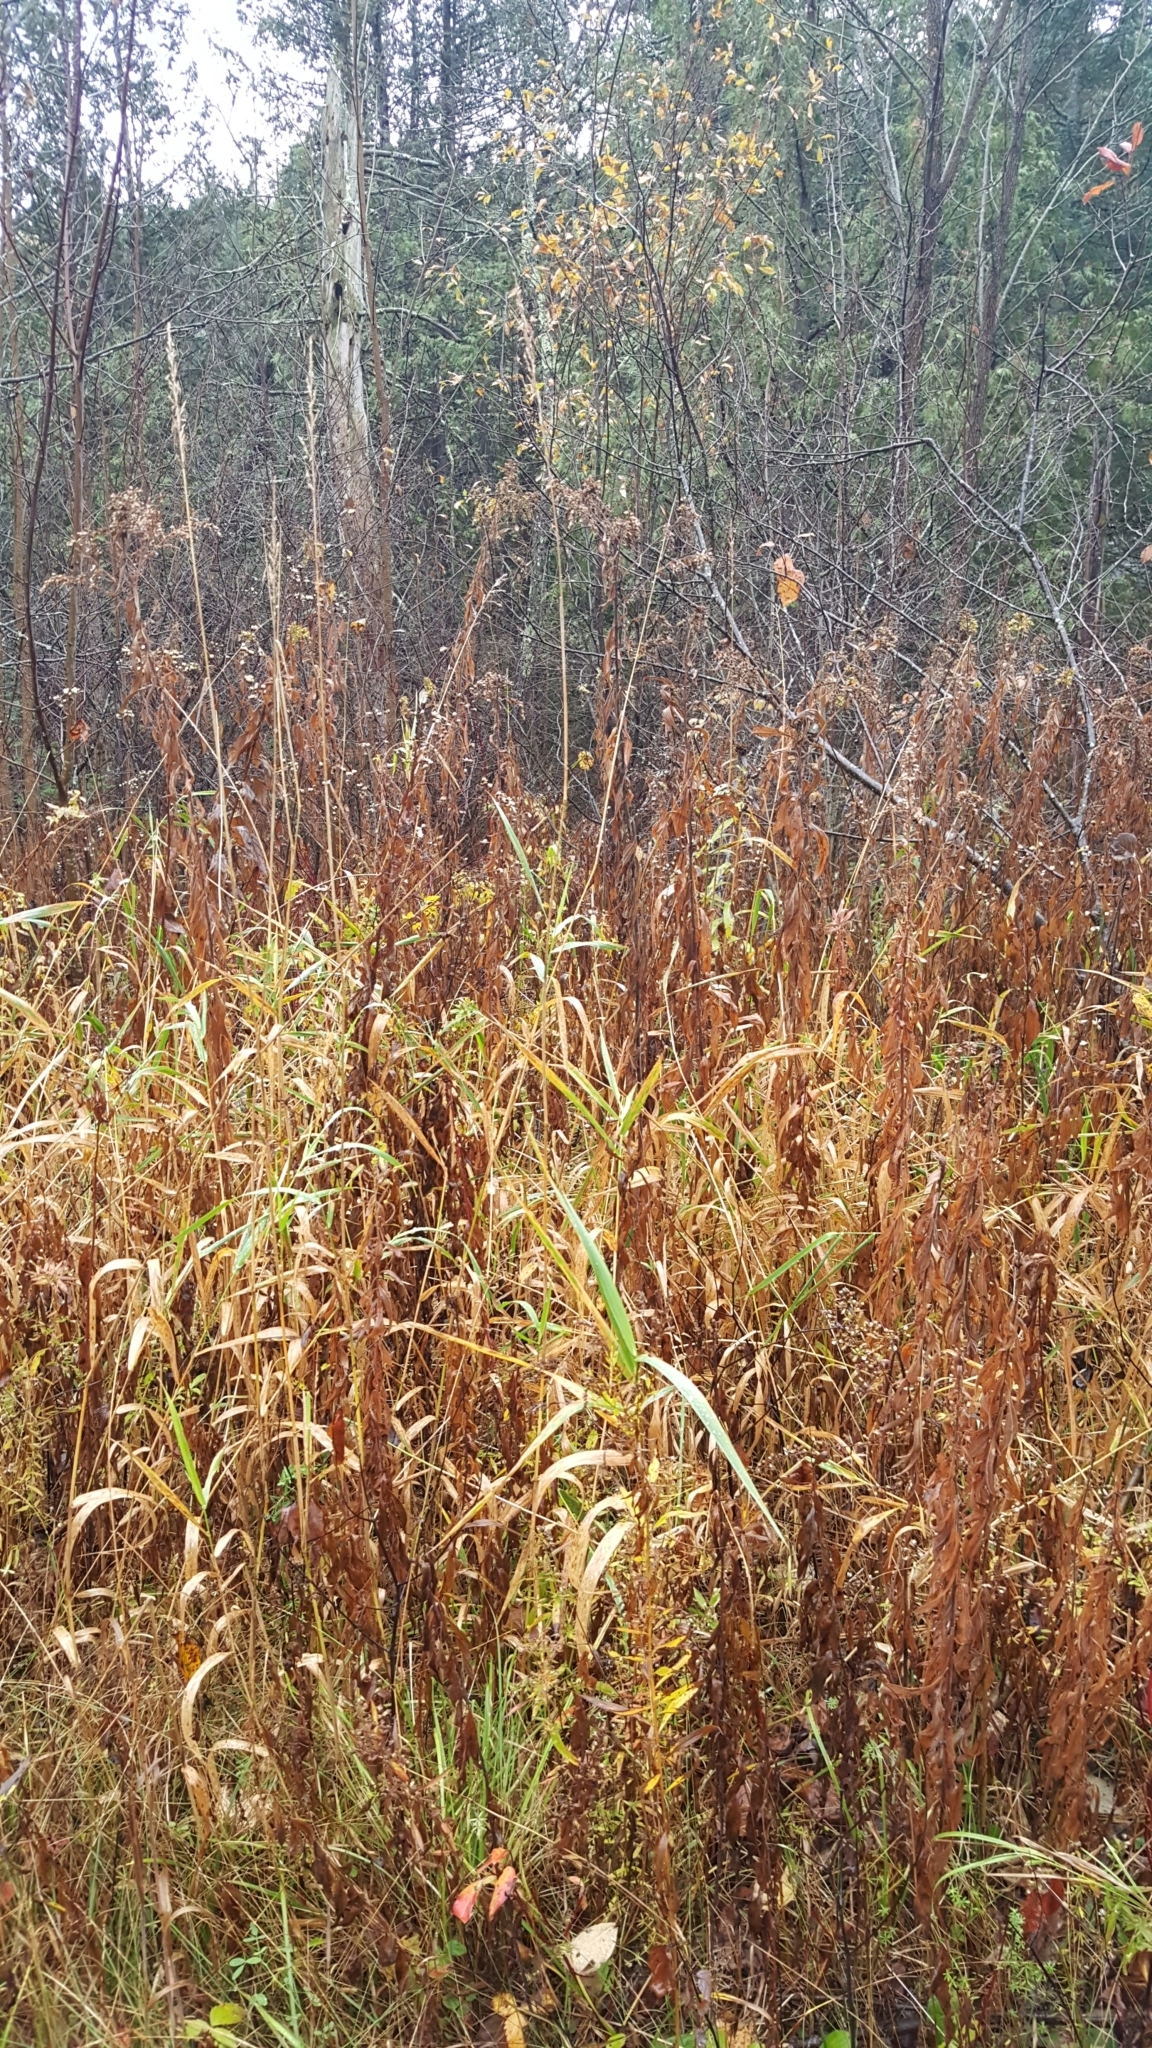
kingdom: Plantae
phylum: Tracheophyta
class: Liliopsida
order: Poales
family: Poaceae
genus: Phragmites
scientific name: Phragmites australis
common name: Common reed
